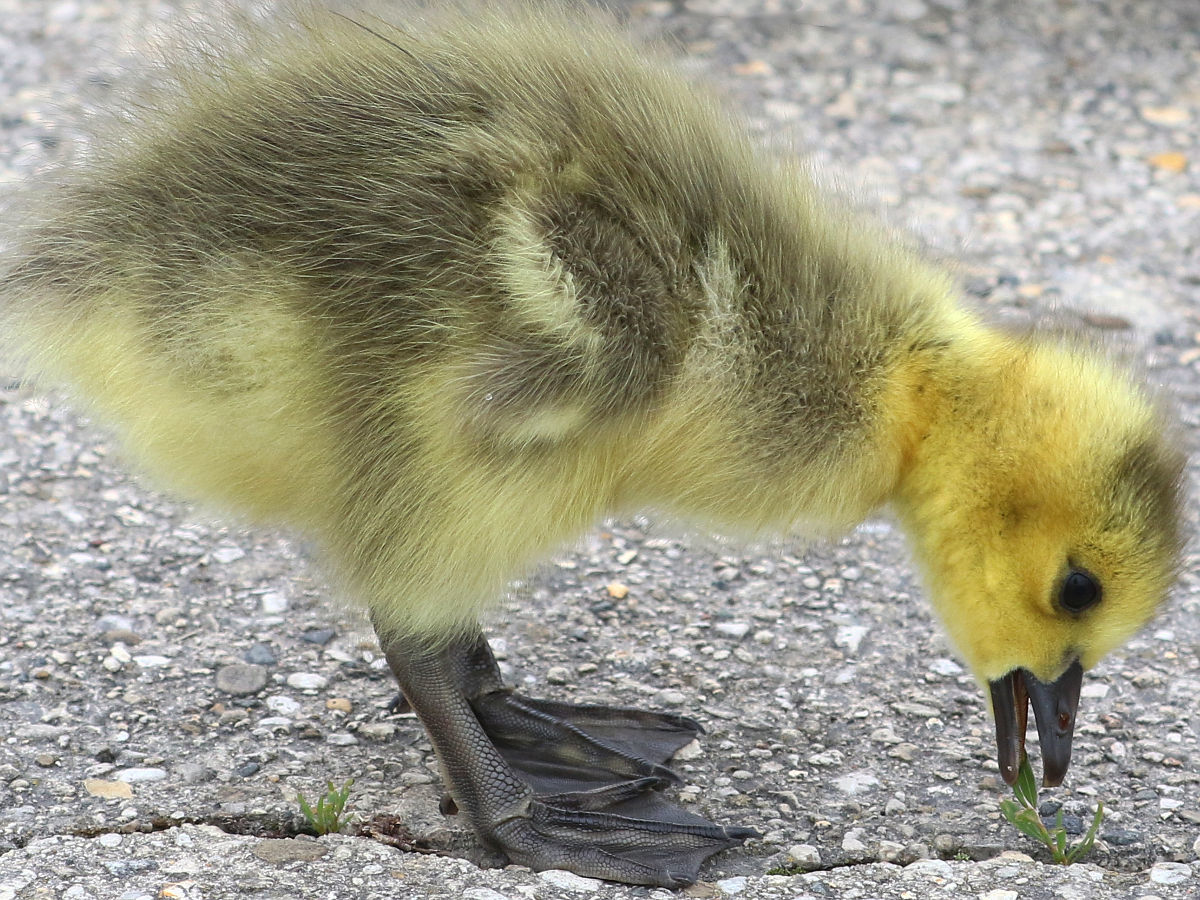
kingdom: Animalia
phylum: Chordata
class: Aves
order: Anseriformes
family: Anatidae
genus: Branta
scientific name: Branta canadensis
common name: Canada goose
